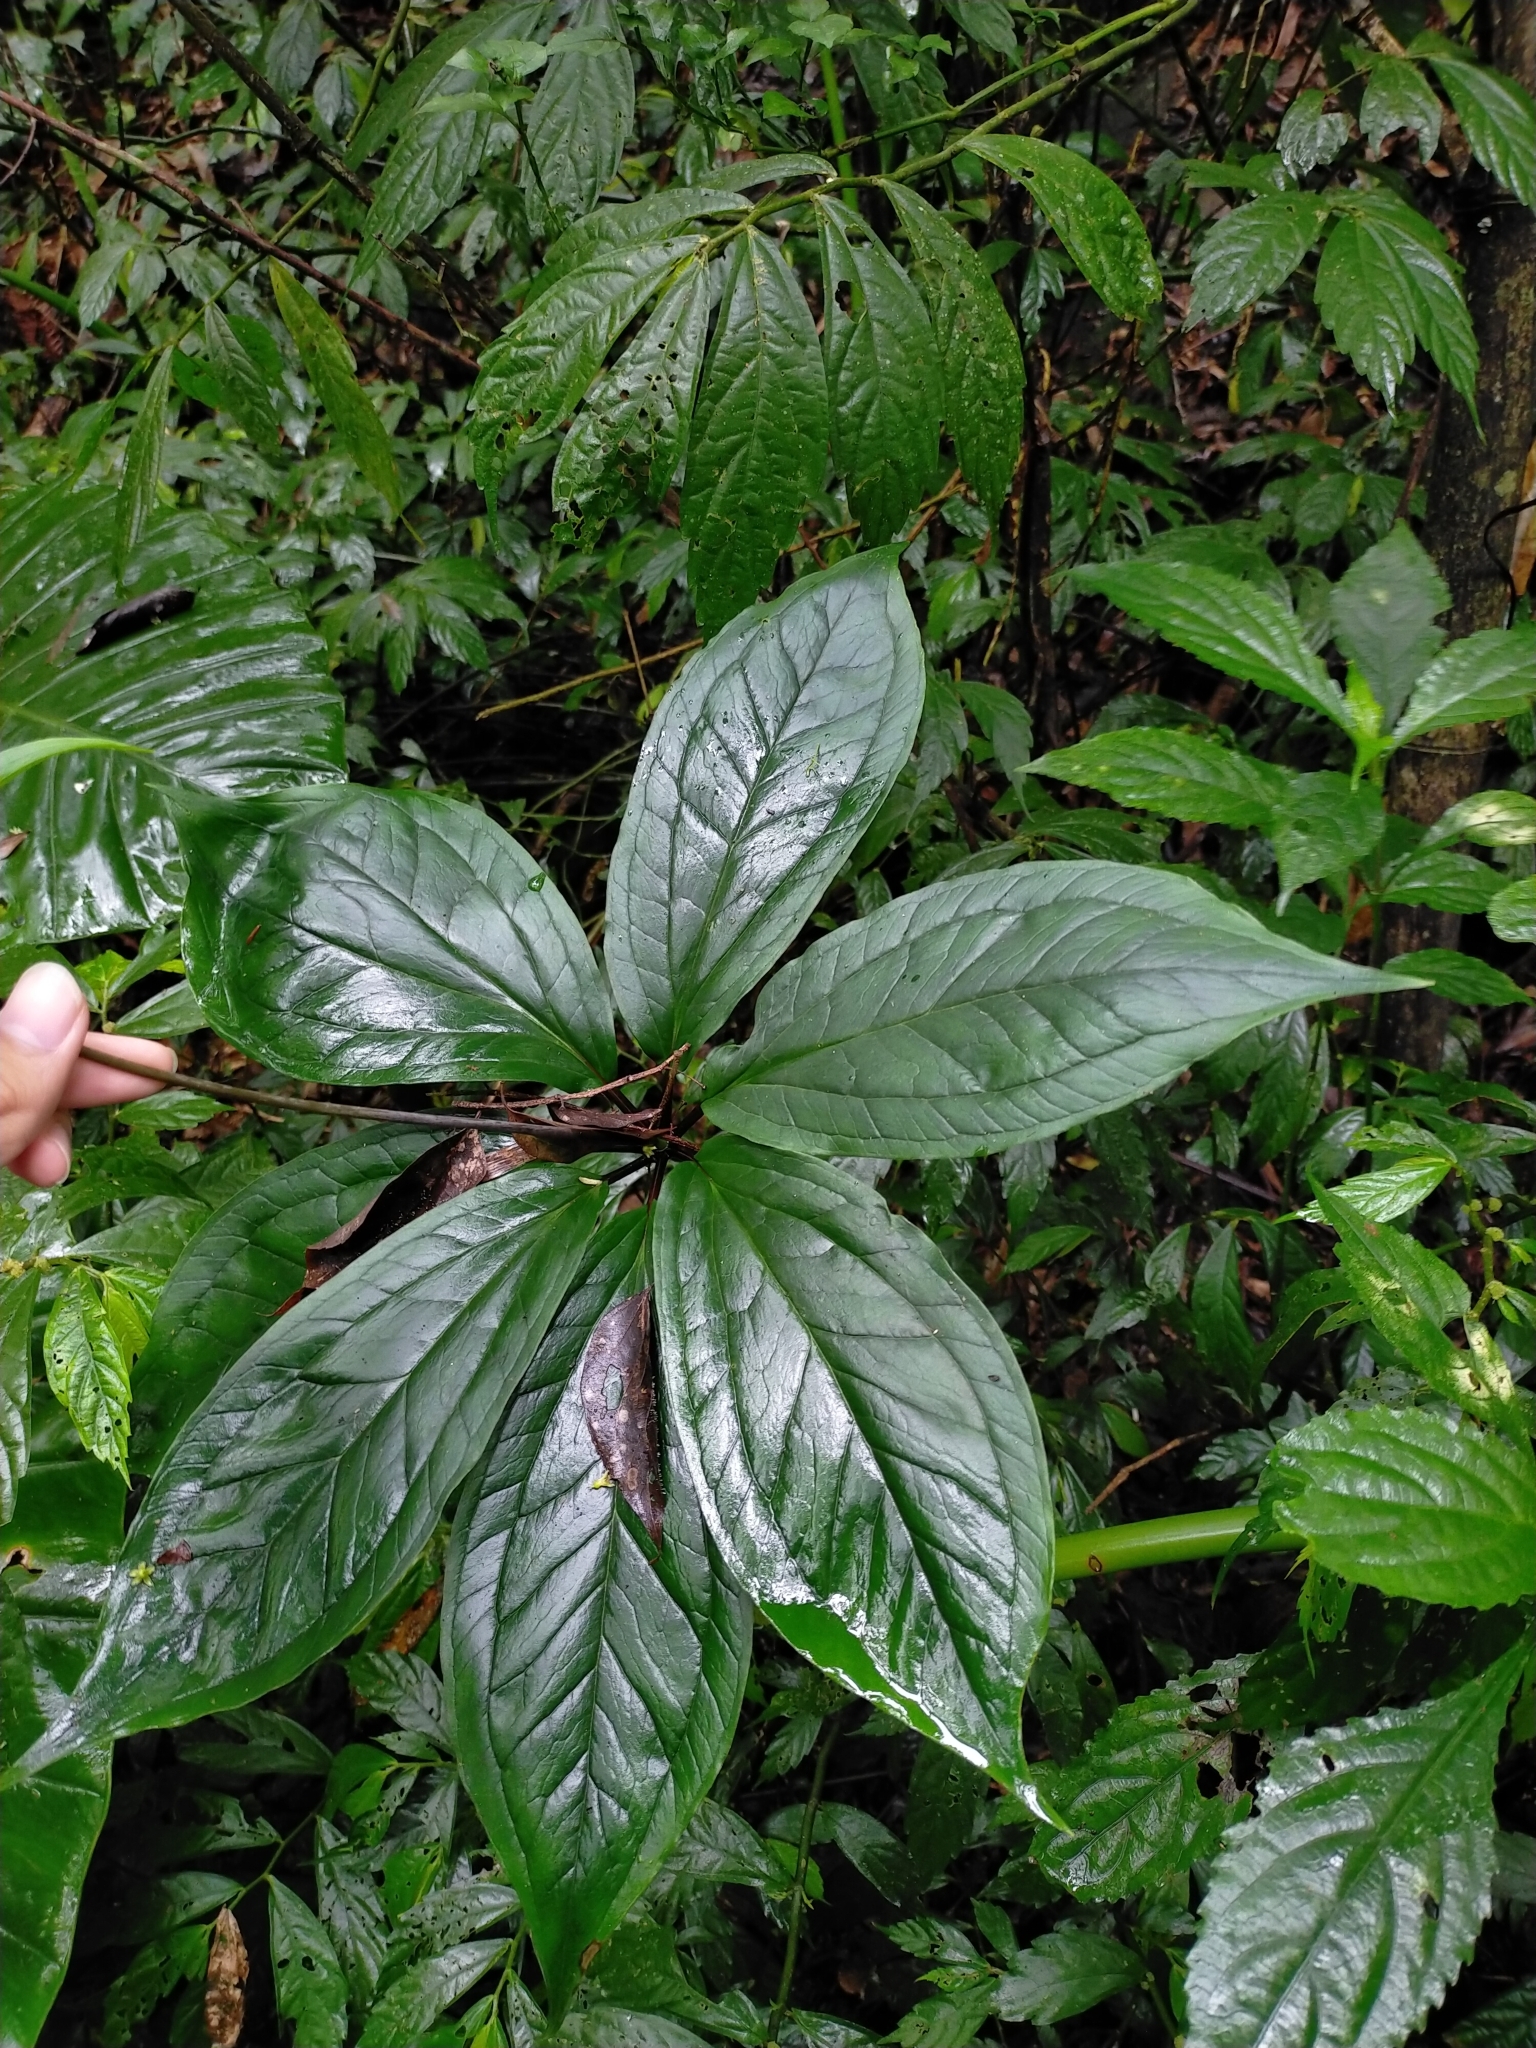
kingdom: Plantae
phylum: Tracheophyta
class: Liliopsida
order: Liliales
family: Melanthiaceae
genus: Paris
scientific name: Paris polyphylla
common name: Love apple
